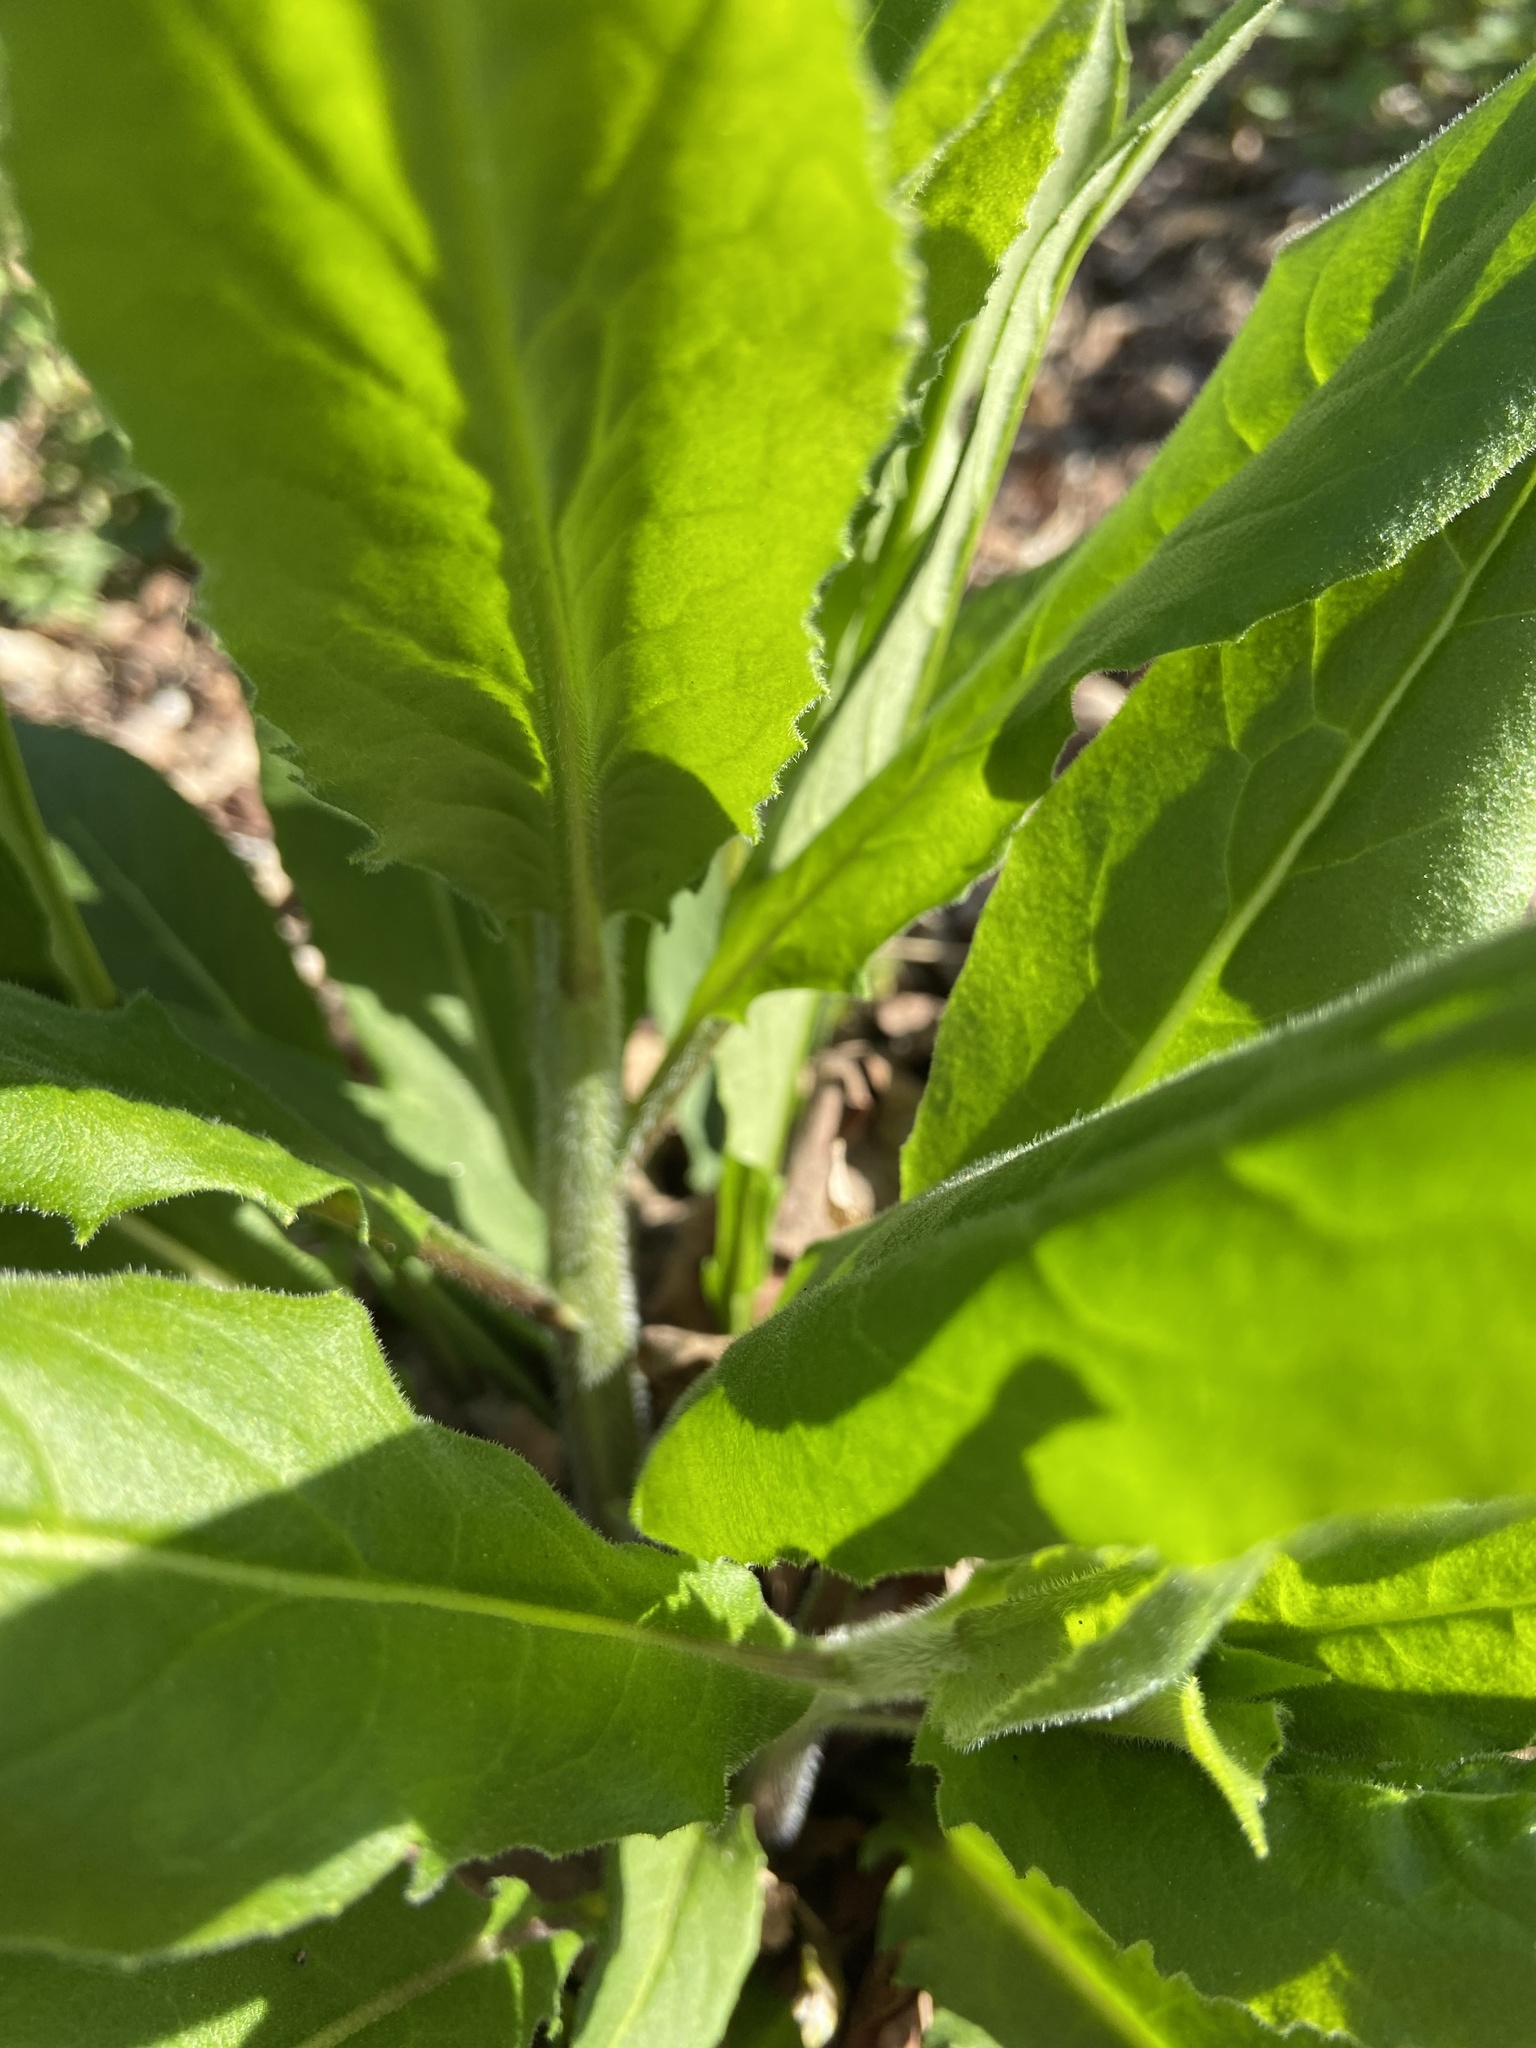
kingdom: Plantae
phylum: Tracheophyta
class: Magnoliopsida
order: Brassicales
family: Brassicaceae
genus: Hesperis
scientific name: Hesperis matronalis
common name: Dame's-violet
